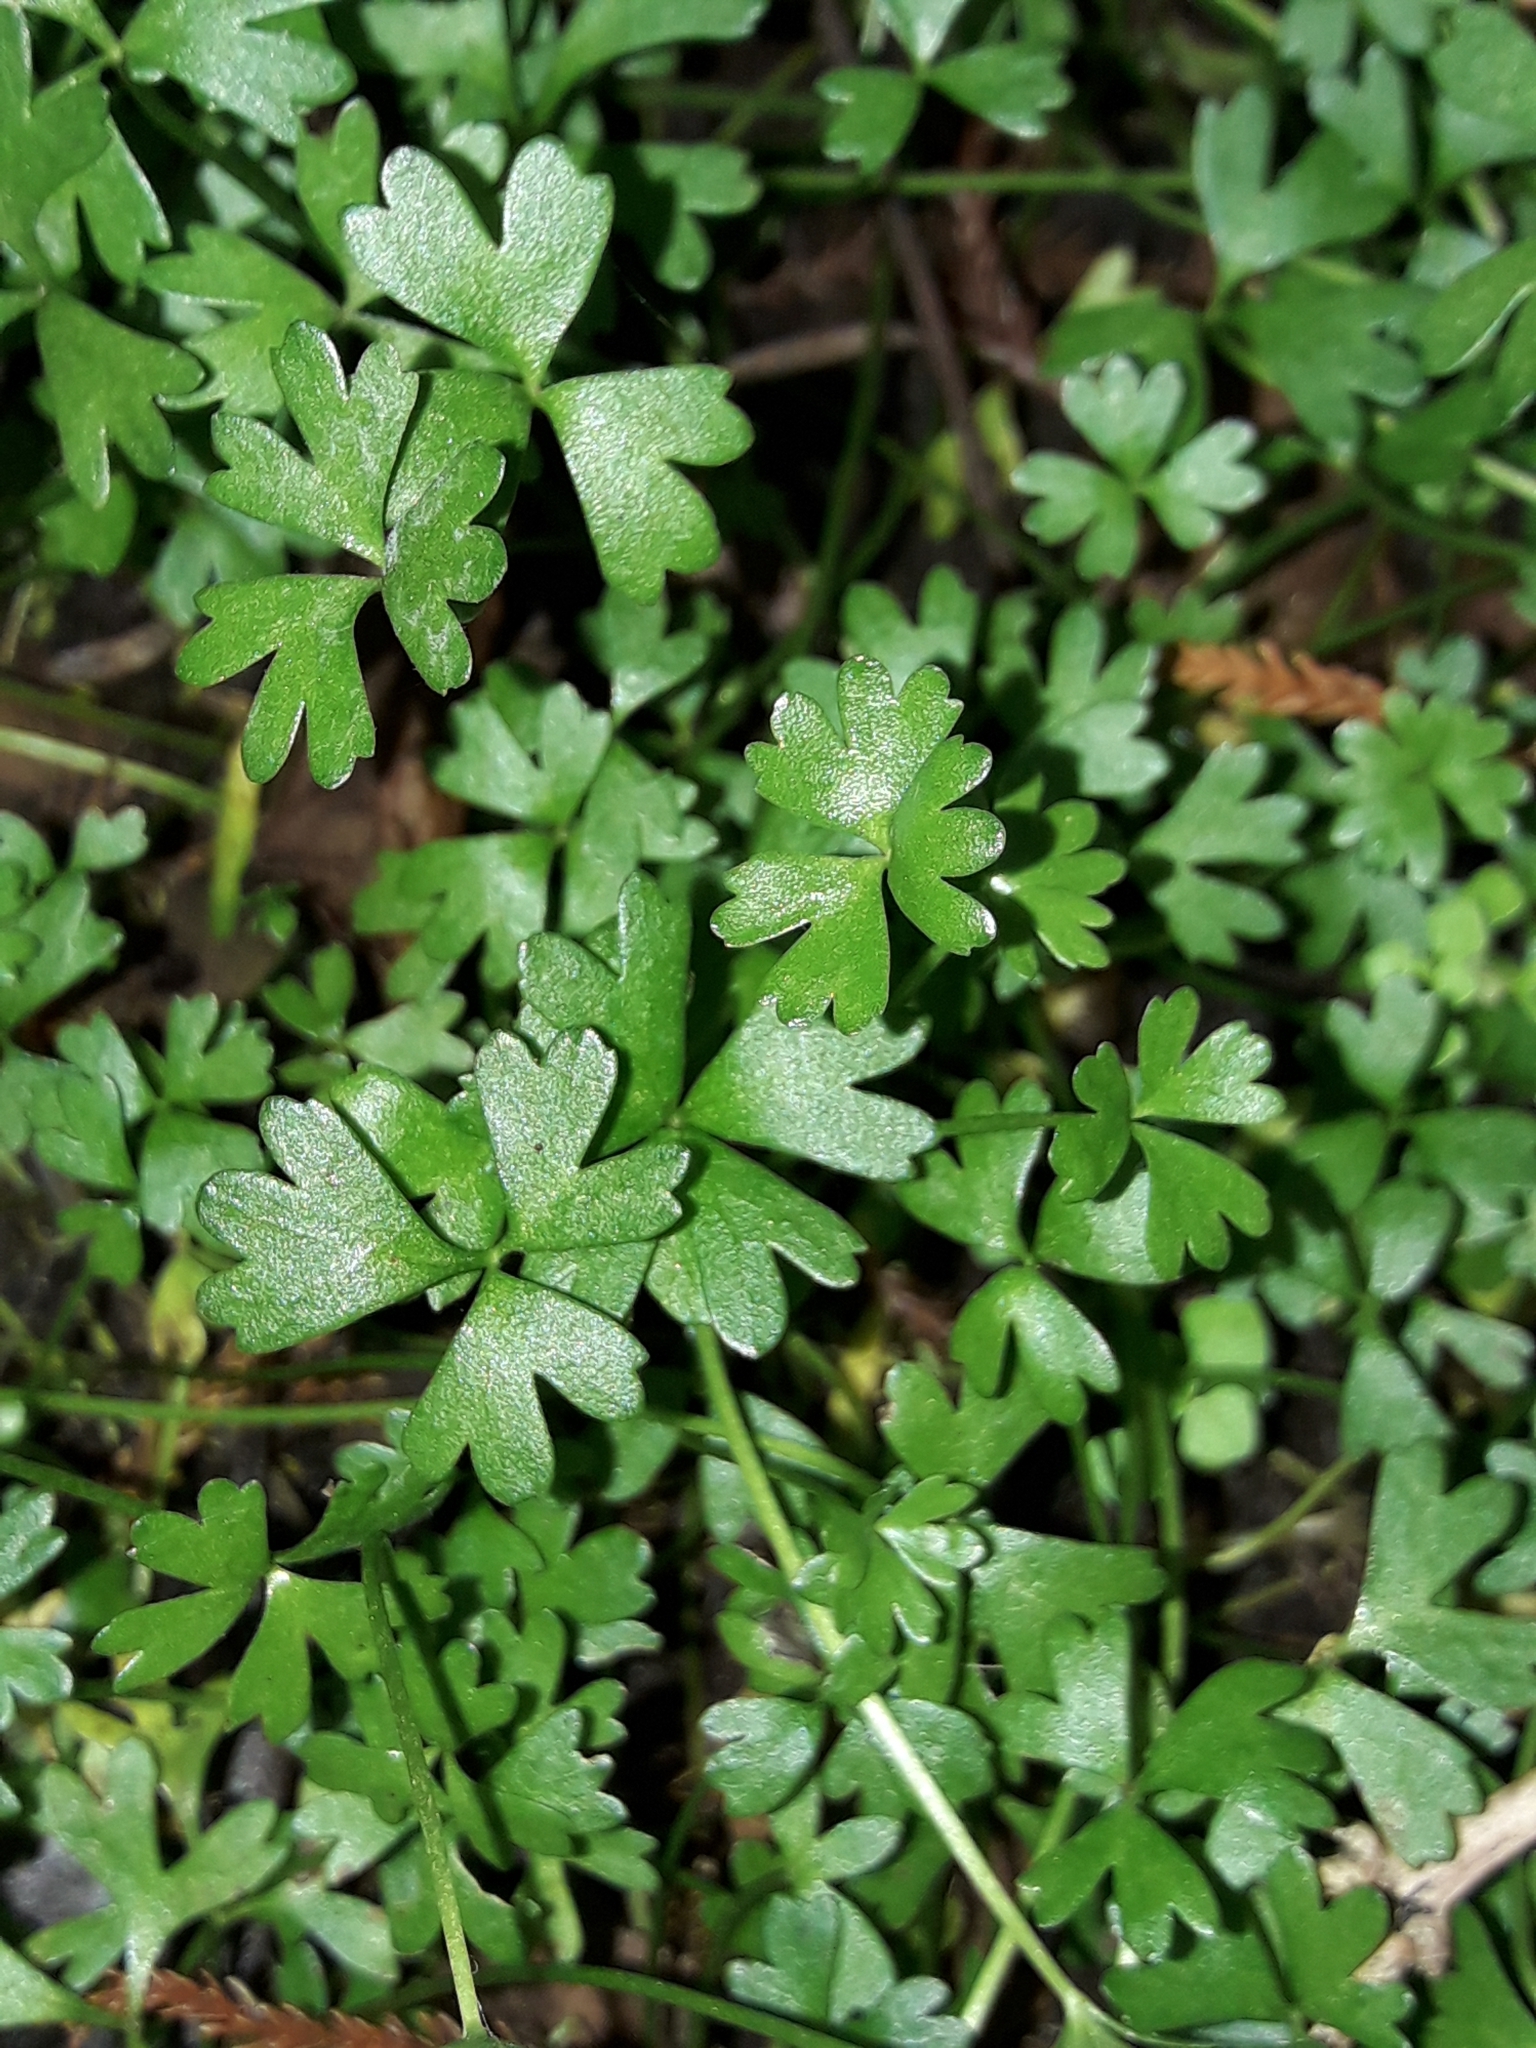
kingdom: Plantae
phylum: Tracheophyta
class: Magnoliopsida
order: Ranunculales
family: Ranunculaceae
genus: Ranunculus
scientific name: Ranunculus amphitrichus
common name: Small river buttercup
